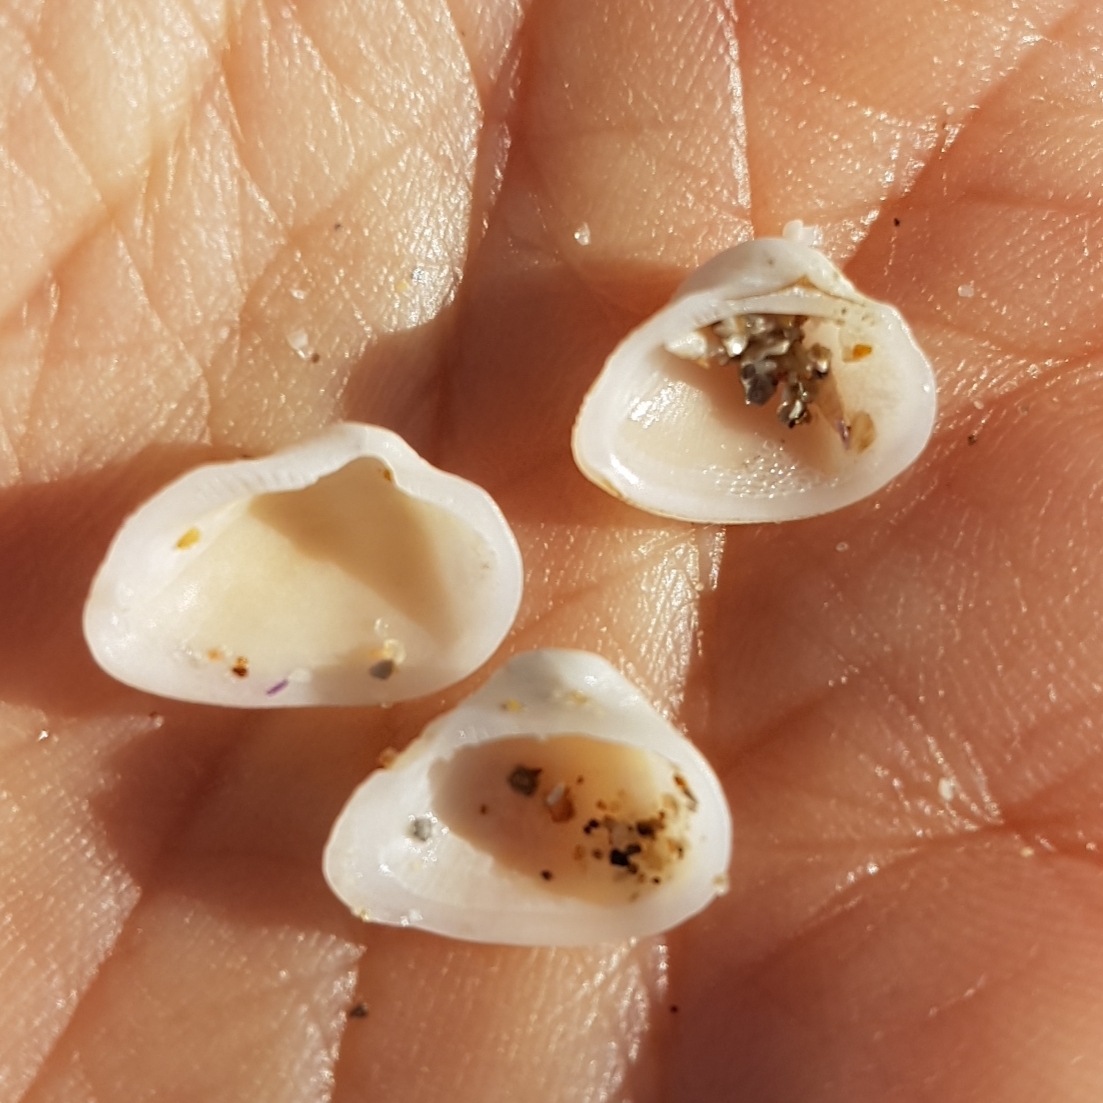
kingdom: Animalia
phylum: Mollusca
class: Bivalvia
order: Arcida
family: Noetiidae
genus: Striarca
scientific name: Striarca lactea
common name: Milky-white ark
